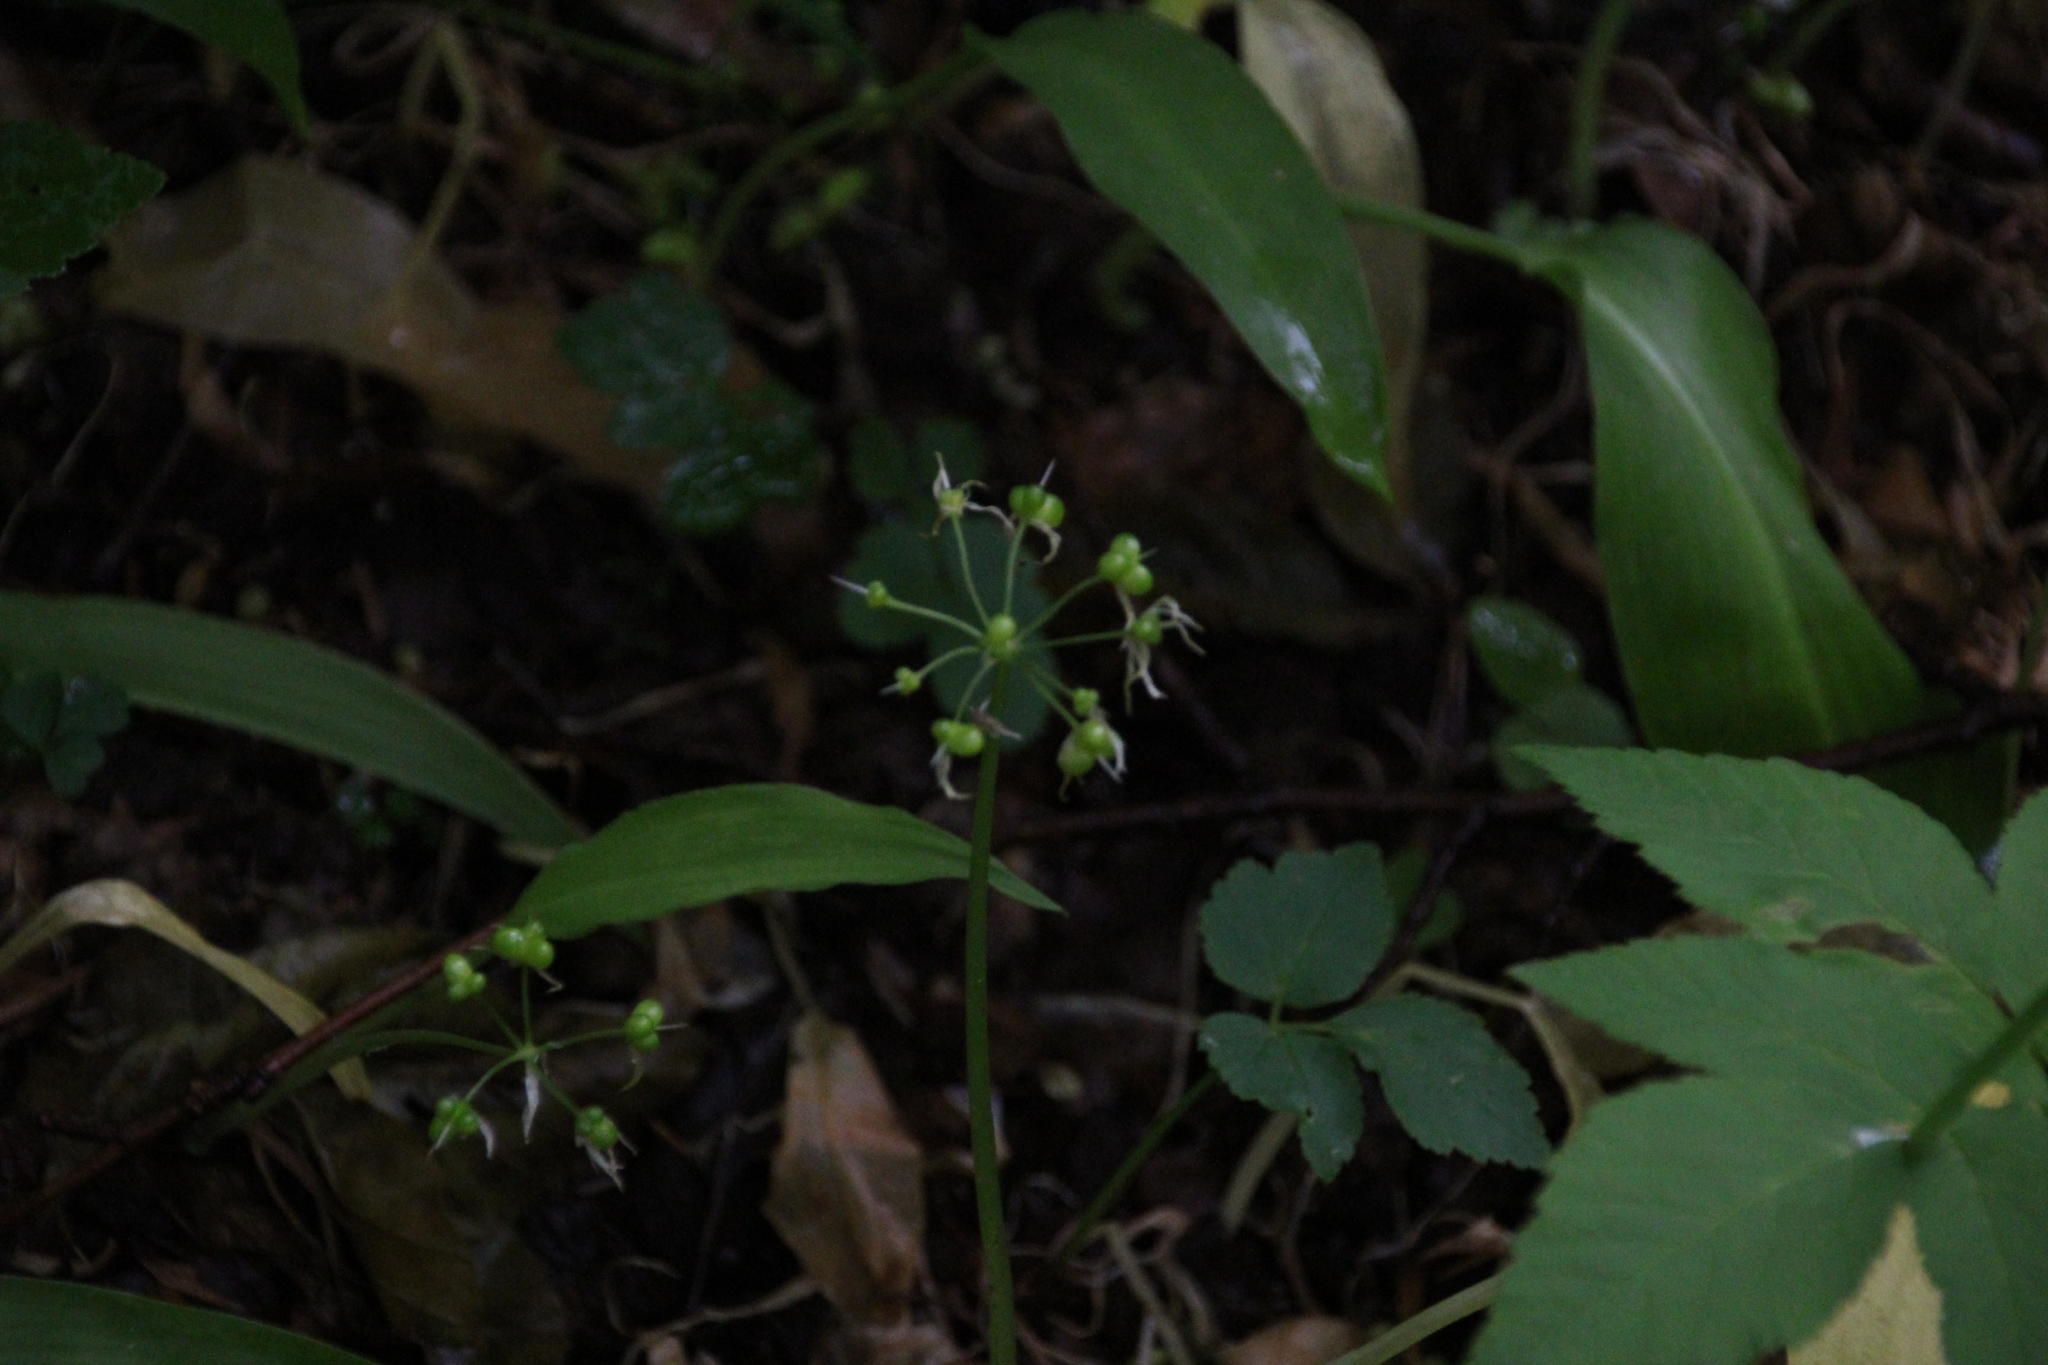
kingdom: Plantae
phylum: Tracheophyta
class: Liliopsida
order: Asparagales
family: Amaryllidaceae
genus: Allium
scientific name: Allium ursinum
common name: Ramsons
